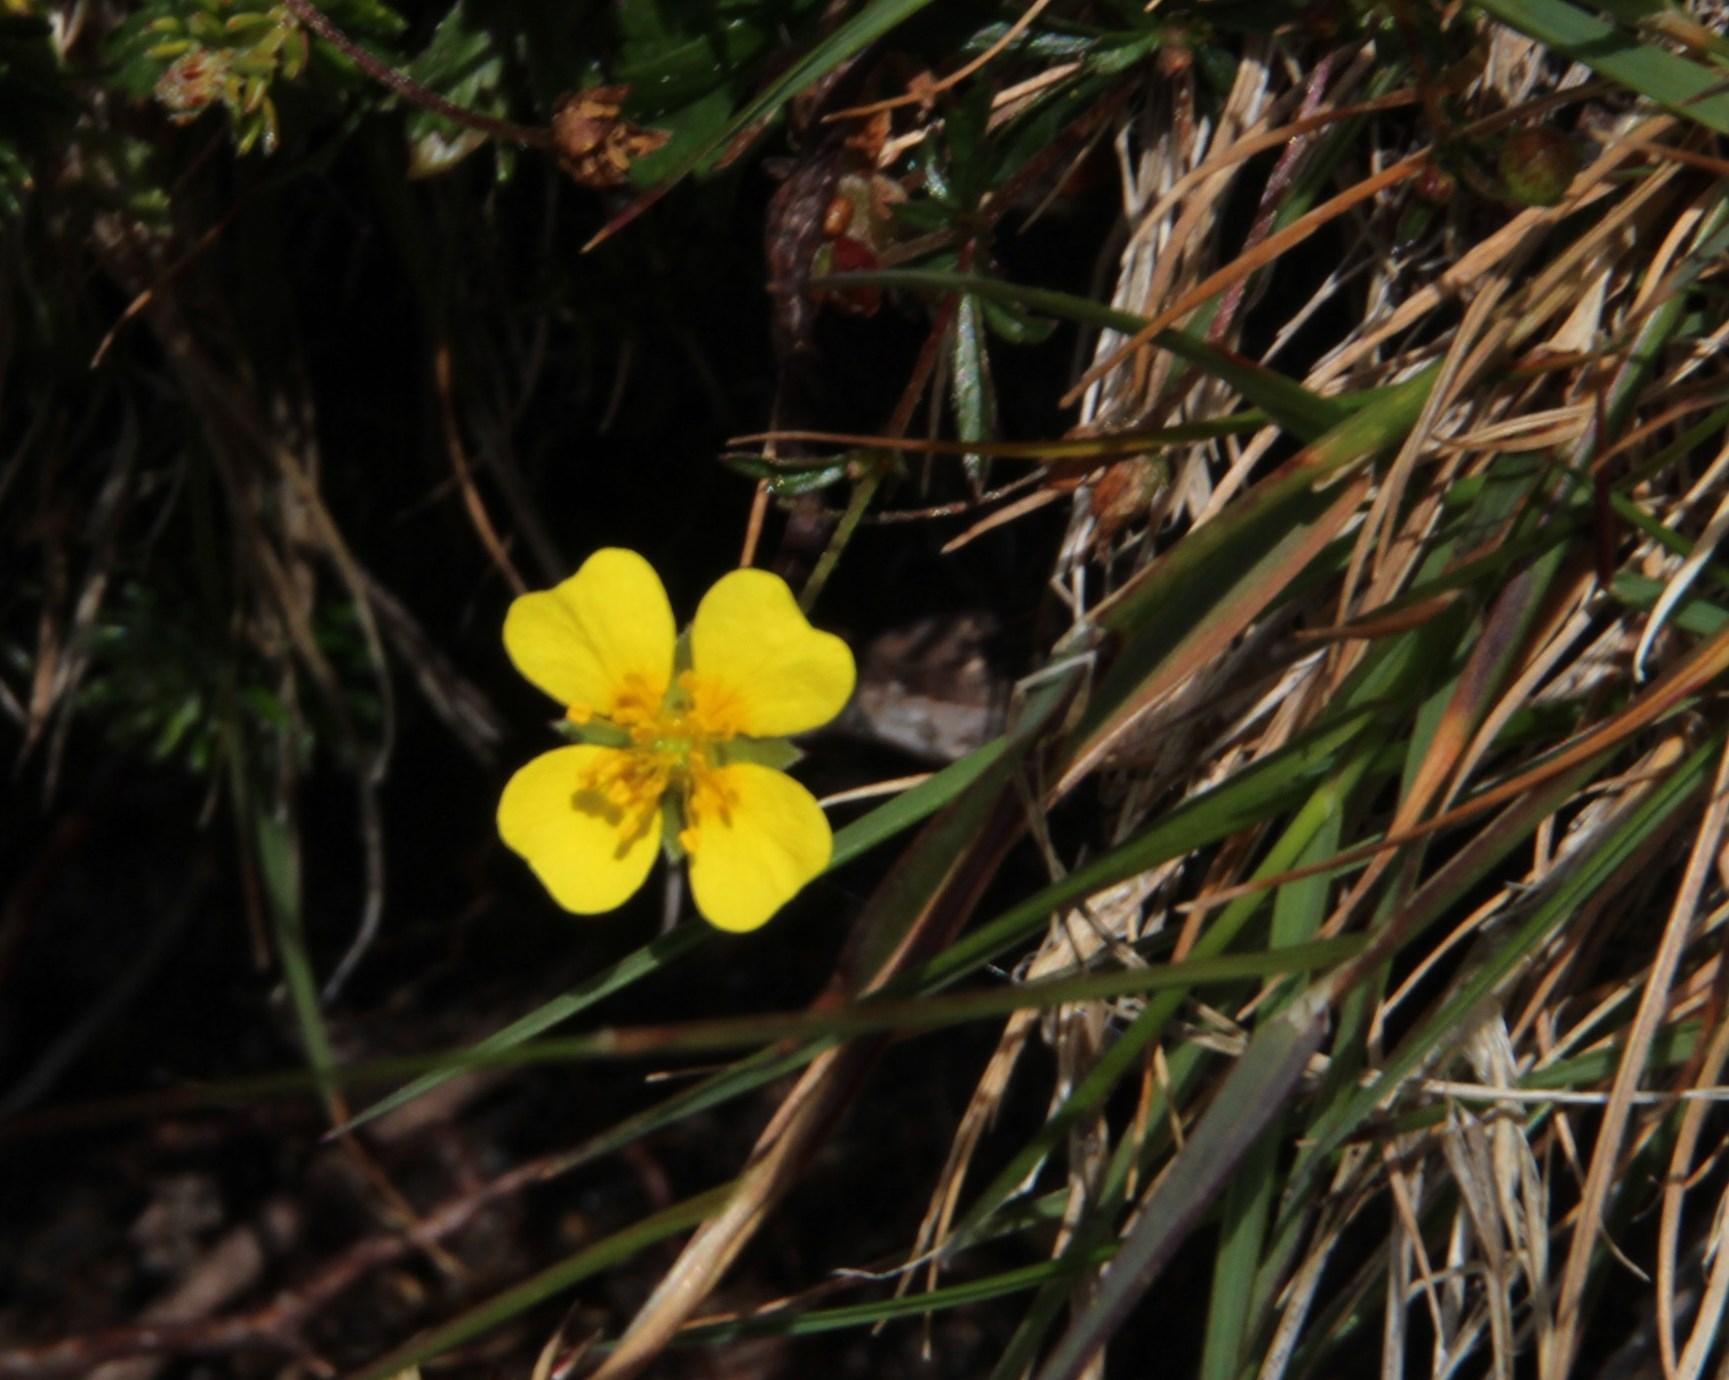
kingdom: Plantae
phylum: Tracheophyta
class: Magnoliopsida
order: Rosales
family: Rosaceae
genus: Potentilla
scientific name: Potentilla erecta
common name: Tormentil
